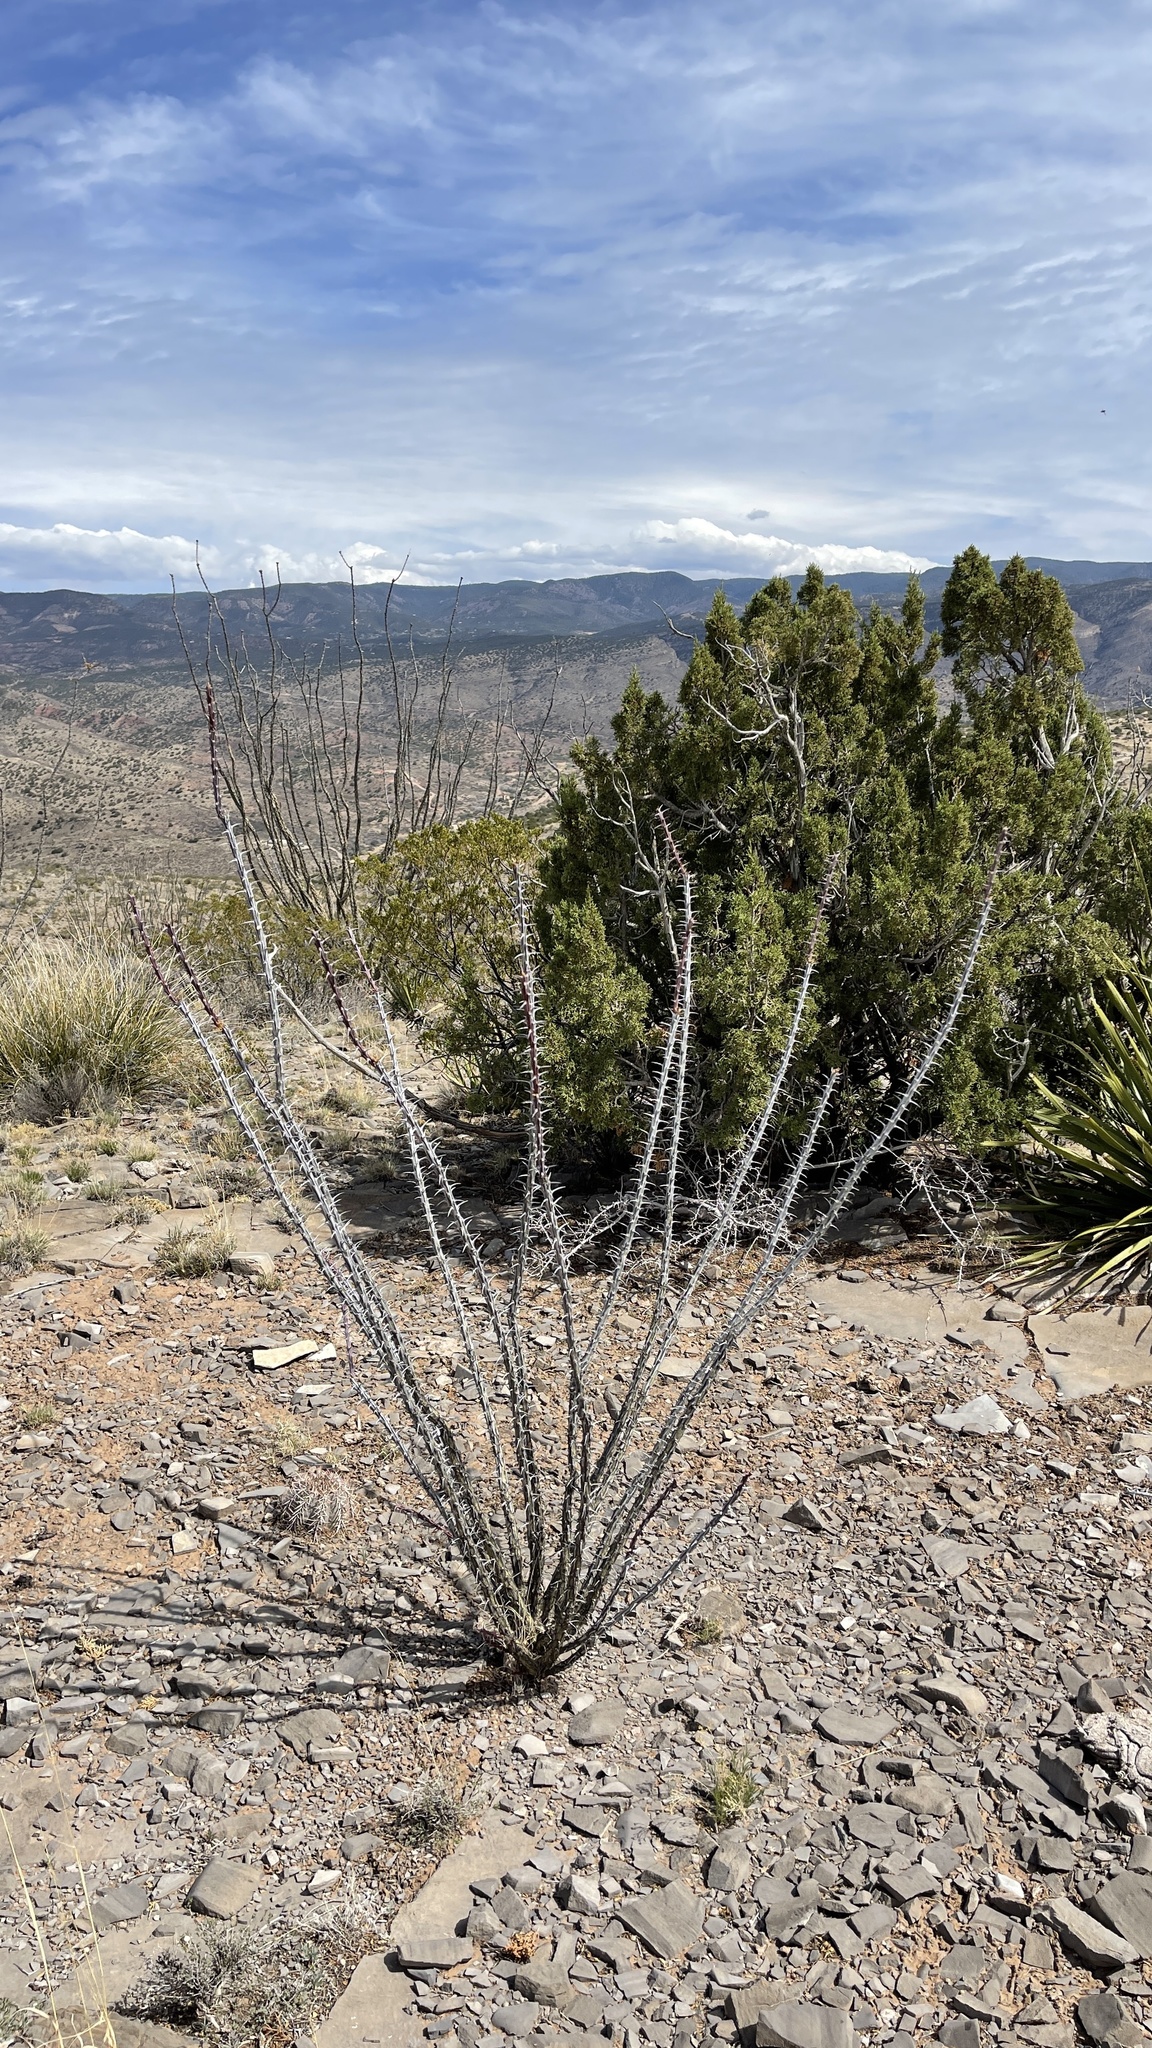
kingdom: Plantae
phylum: Tracheophyta
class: Magnoliopsida
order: Ericales
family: Fouquieriaceae
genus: Fouquieria
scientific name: Fouquieria splendens
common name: Vine-cactus
